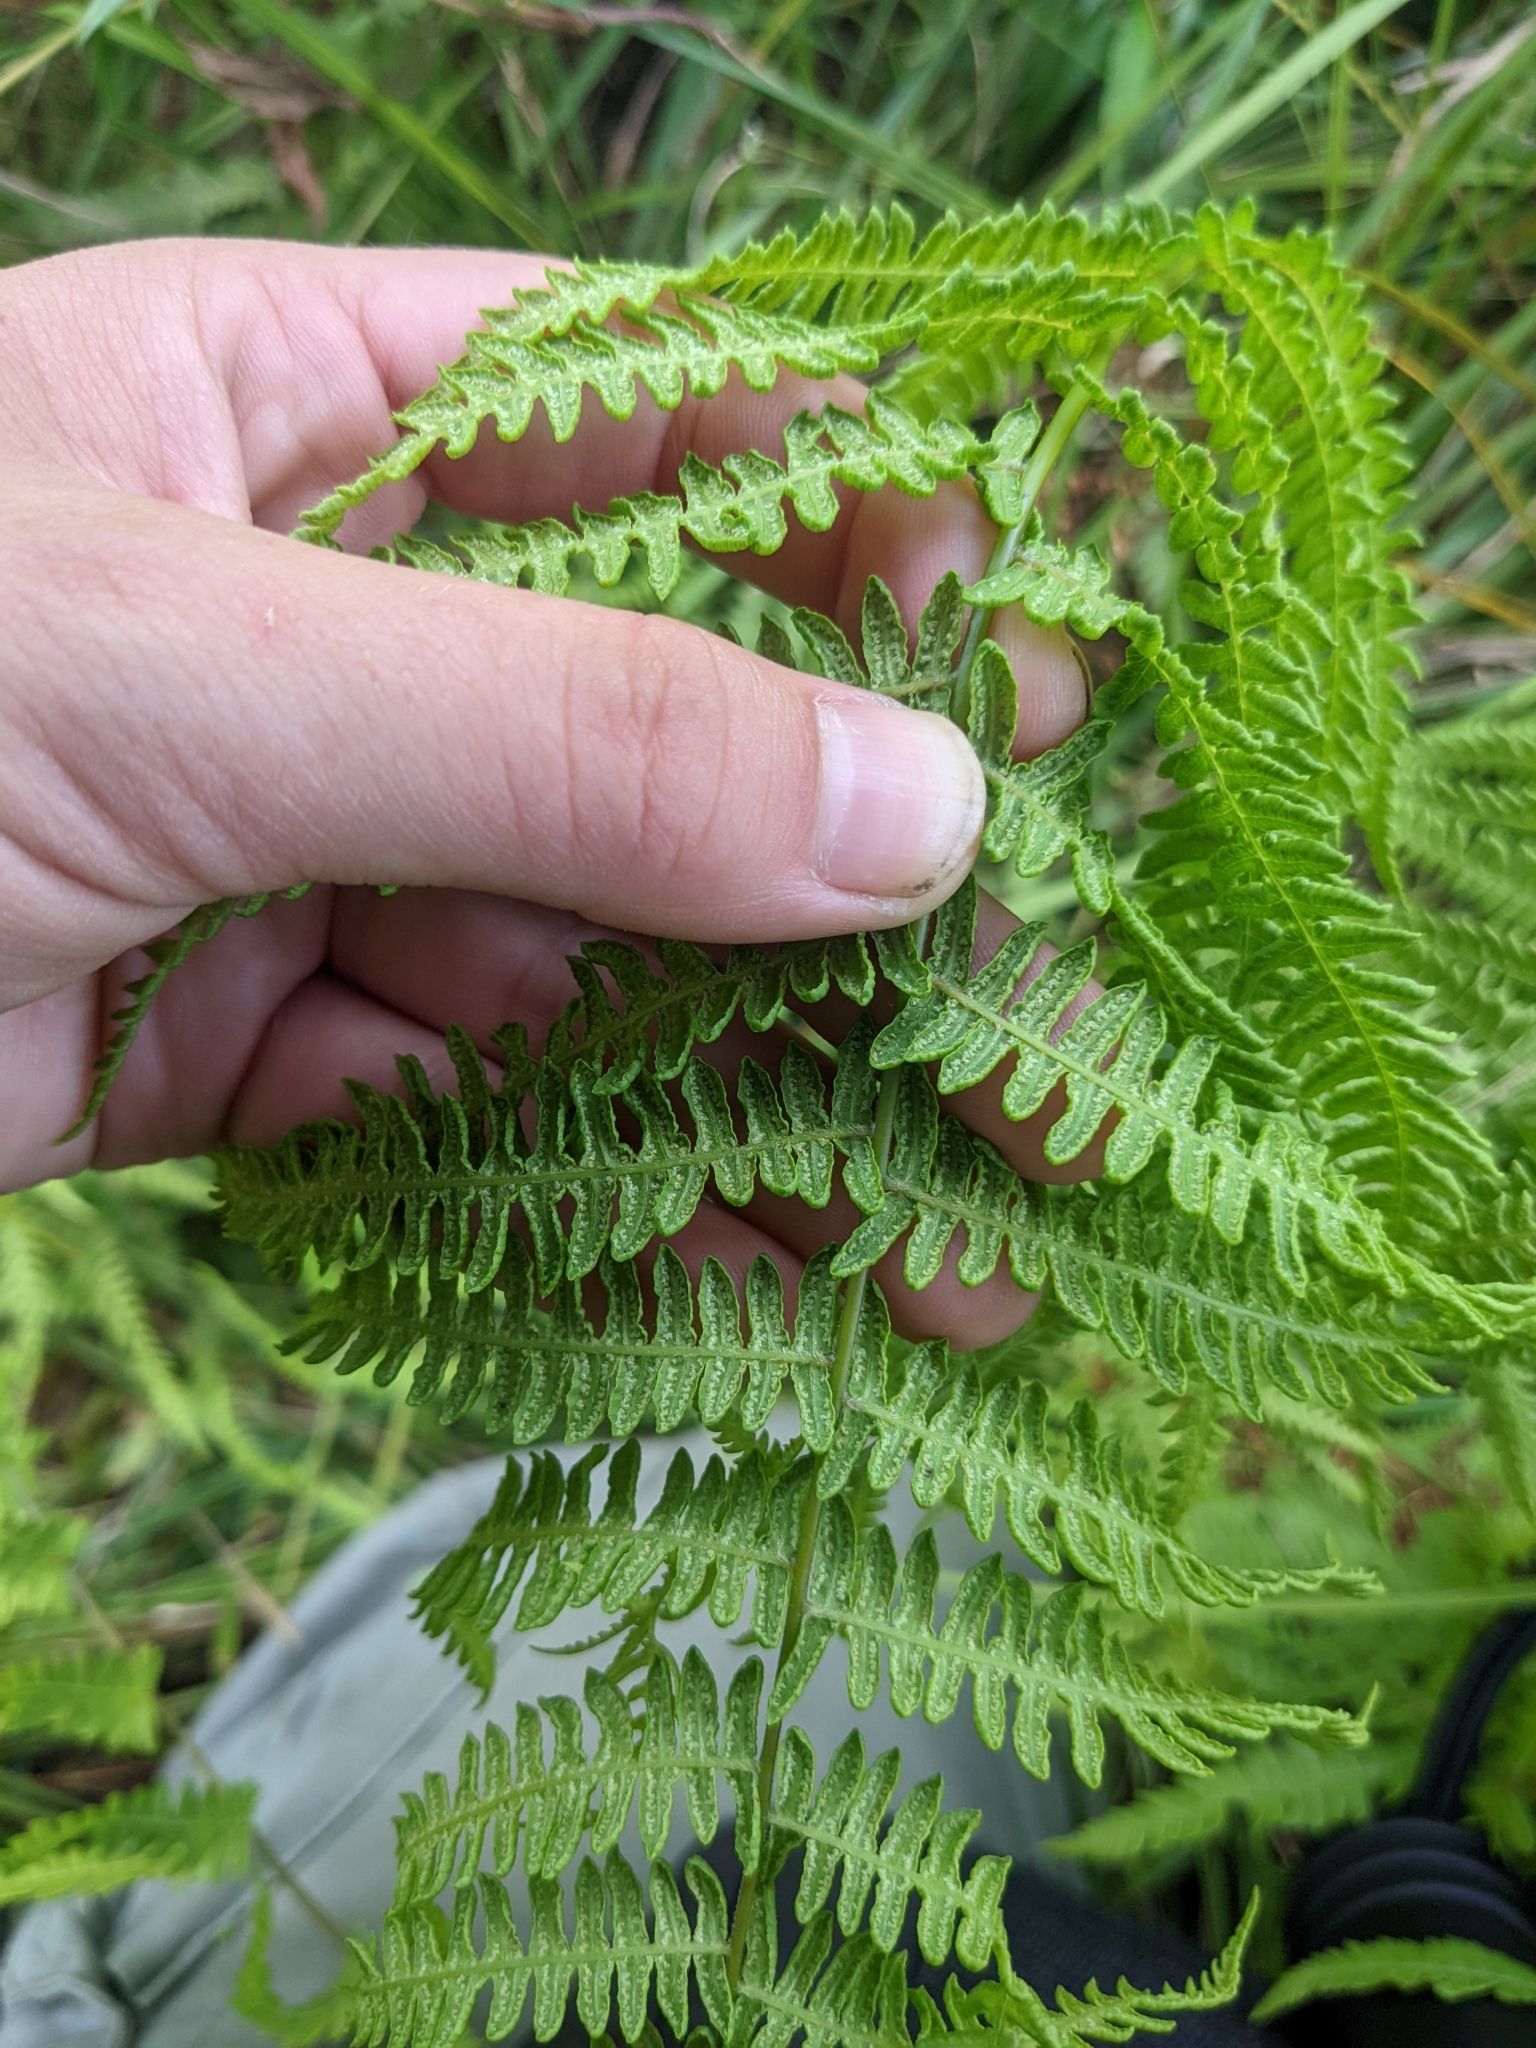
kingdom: Plantae
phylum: Tracheophyta
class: Polypodiopsida
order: Polypodiales
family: Thelypteridaceae
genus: Thelypteris
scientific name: Thelypteris palustris
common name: Marsh fern
